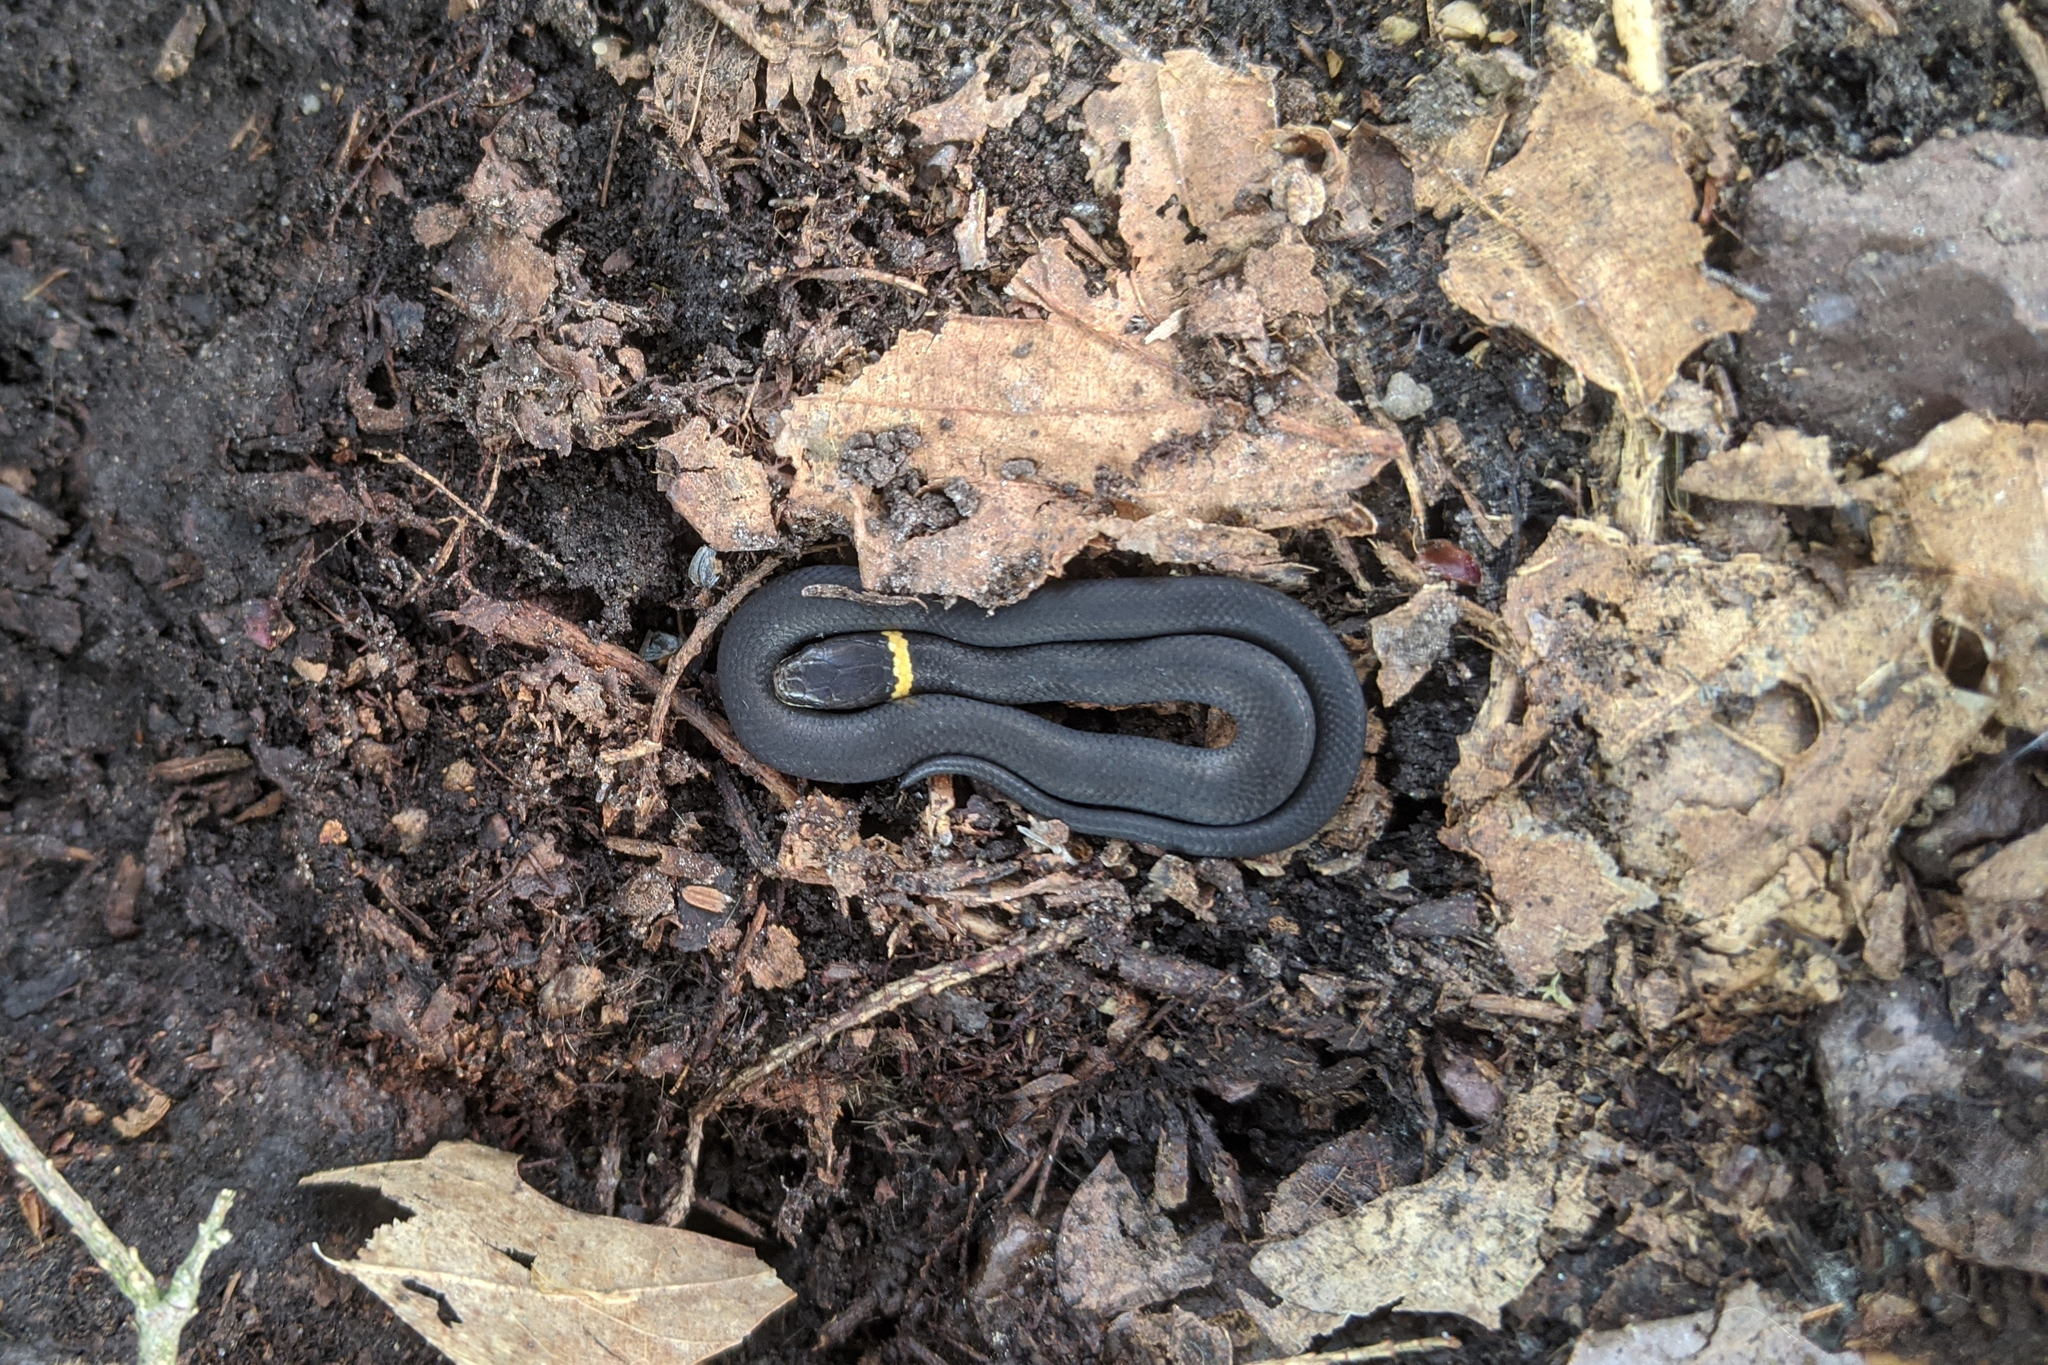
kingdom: Animalia
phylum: Chordata
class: Squamata
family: Colubridae
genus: Diadophis
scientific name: Diadophis punctatus
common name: Ringneck snake
